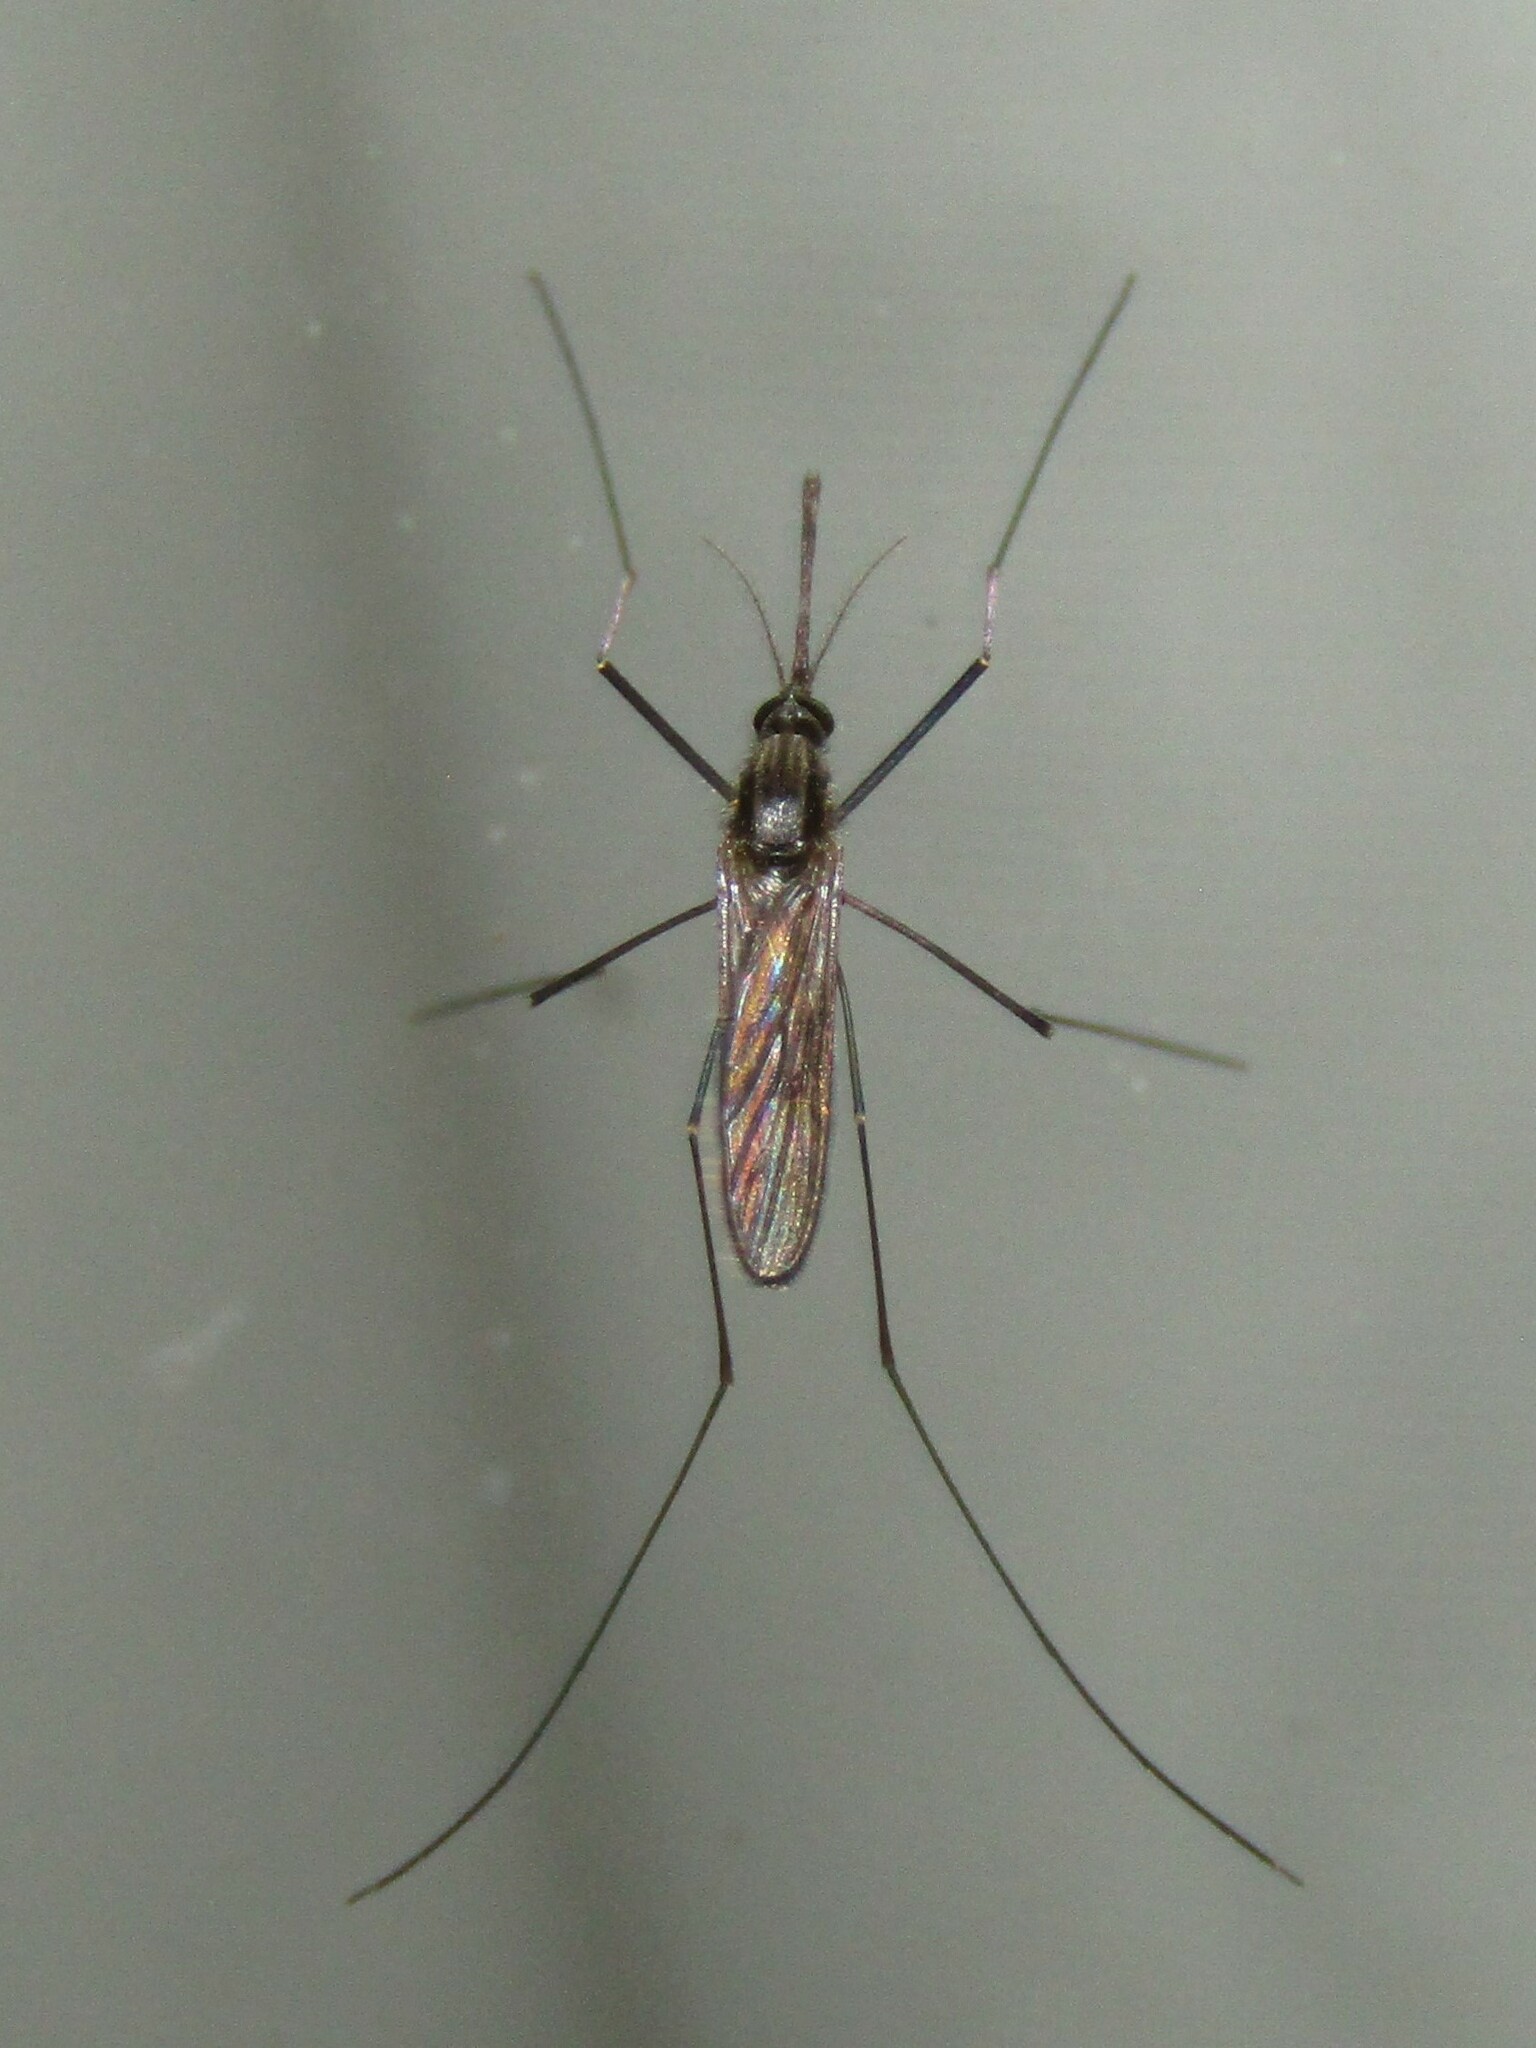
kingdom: Animalia
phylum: Arthropoda
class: Insecta
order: Diptera
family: Culicidae
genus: Anopheles
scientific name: Anopheles
